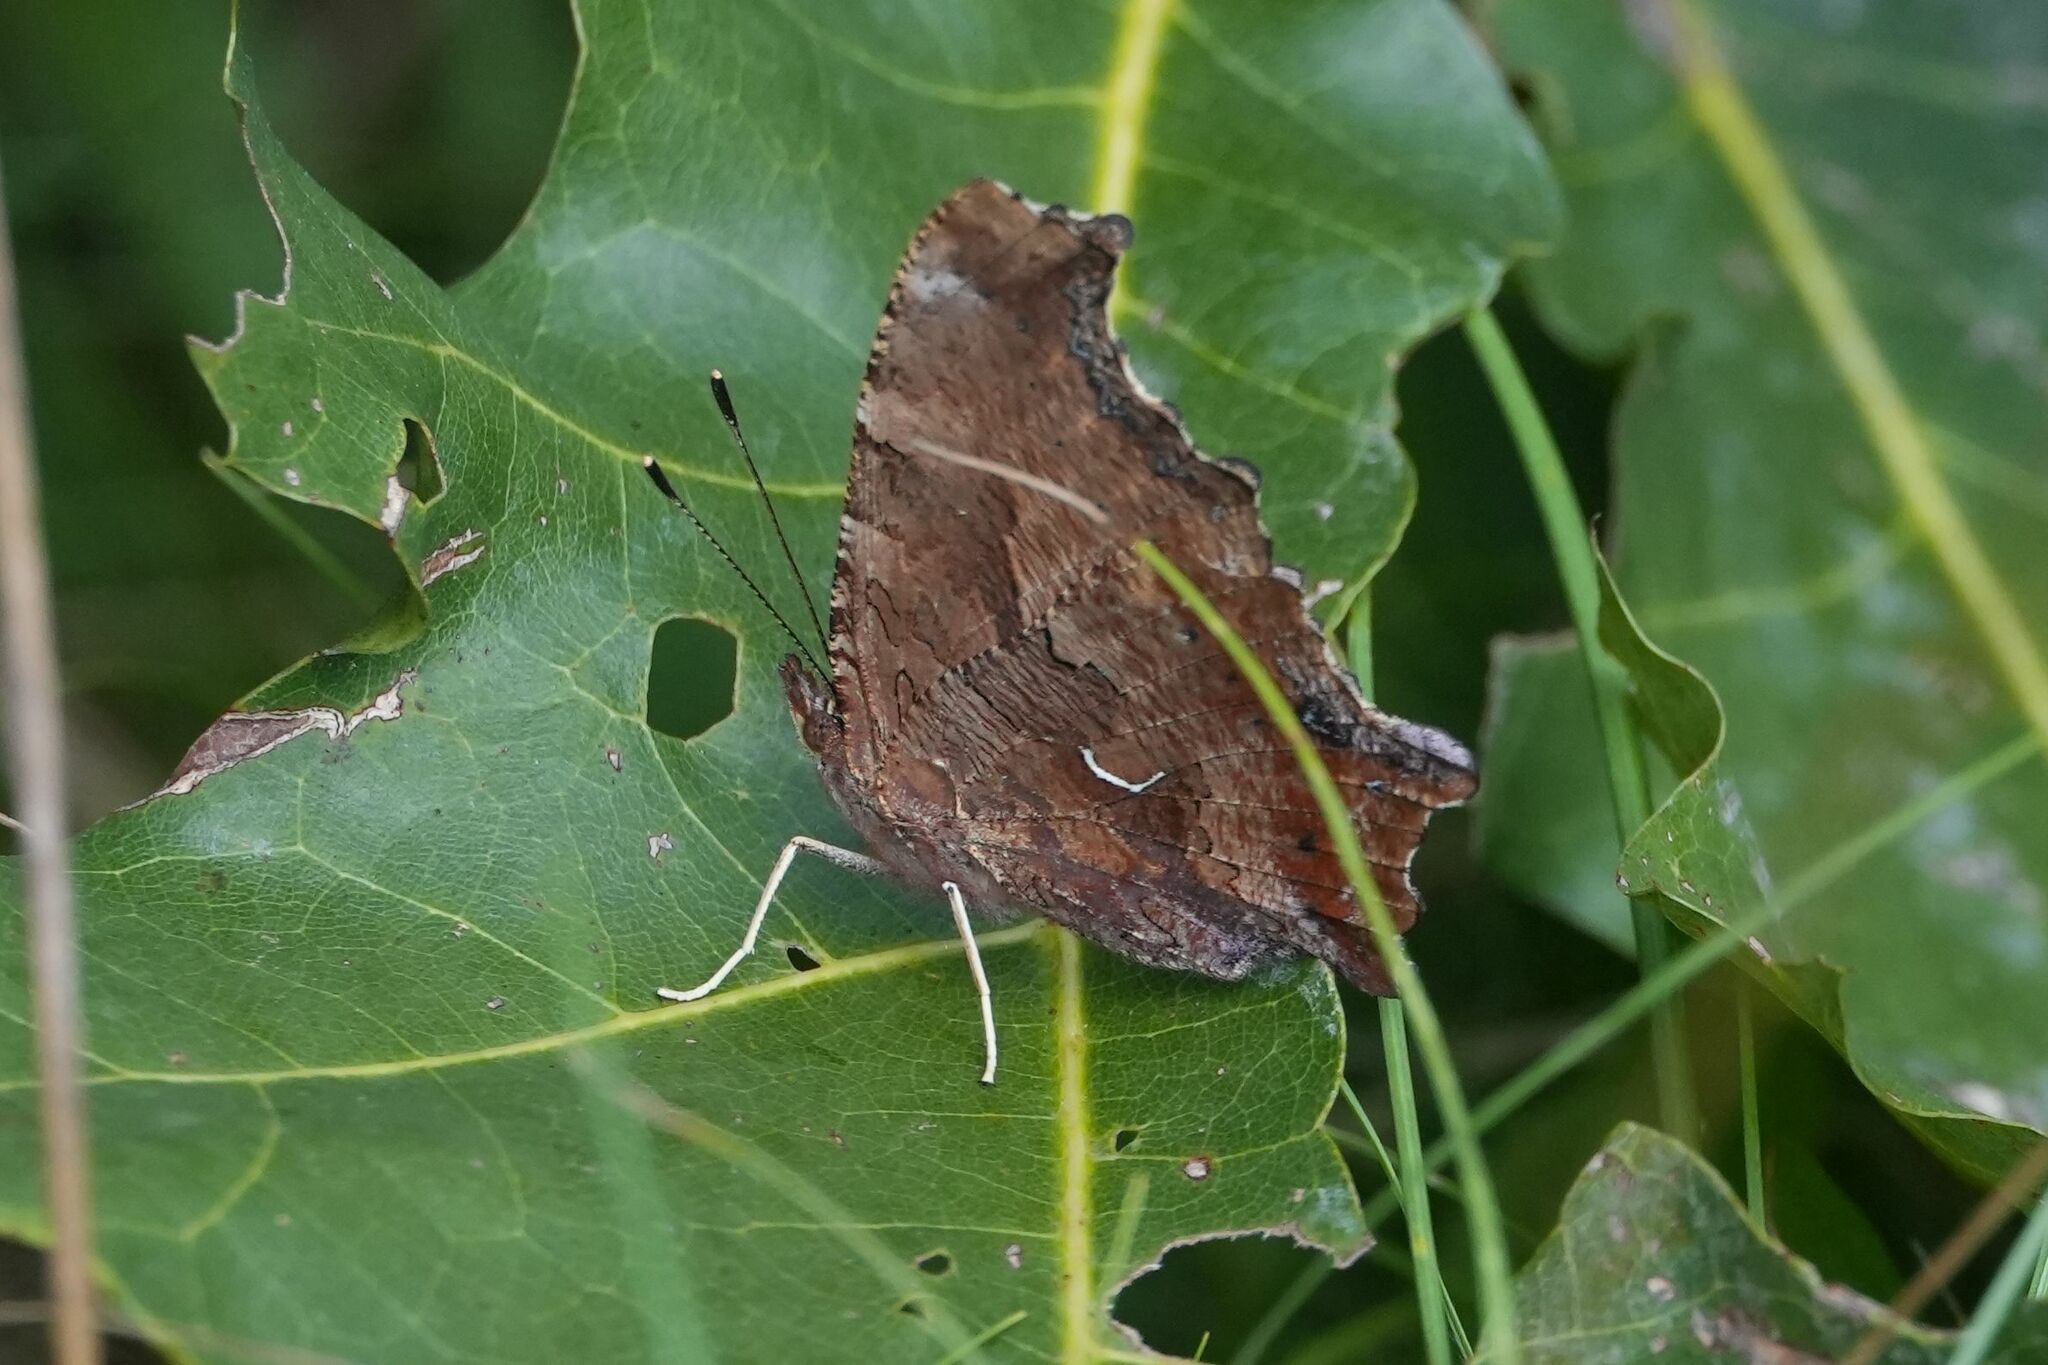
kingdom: Animalia
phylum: Arthropoda
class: Insecta
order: Lepidoptera
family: Nymphalidae
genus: Polygonia
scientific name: Polygonia comma
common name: Eastern comma
